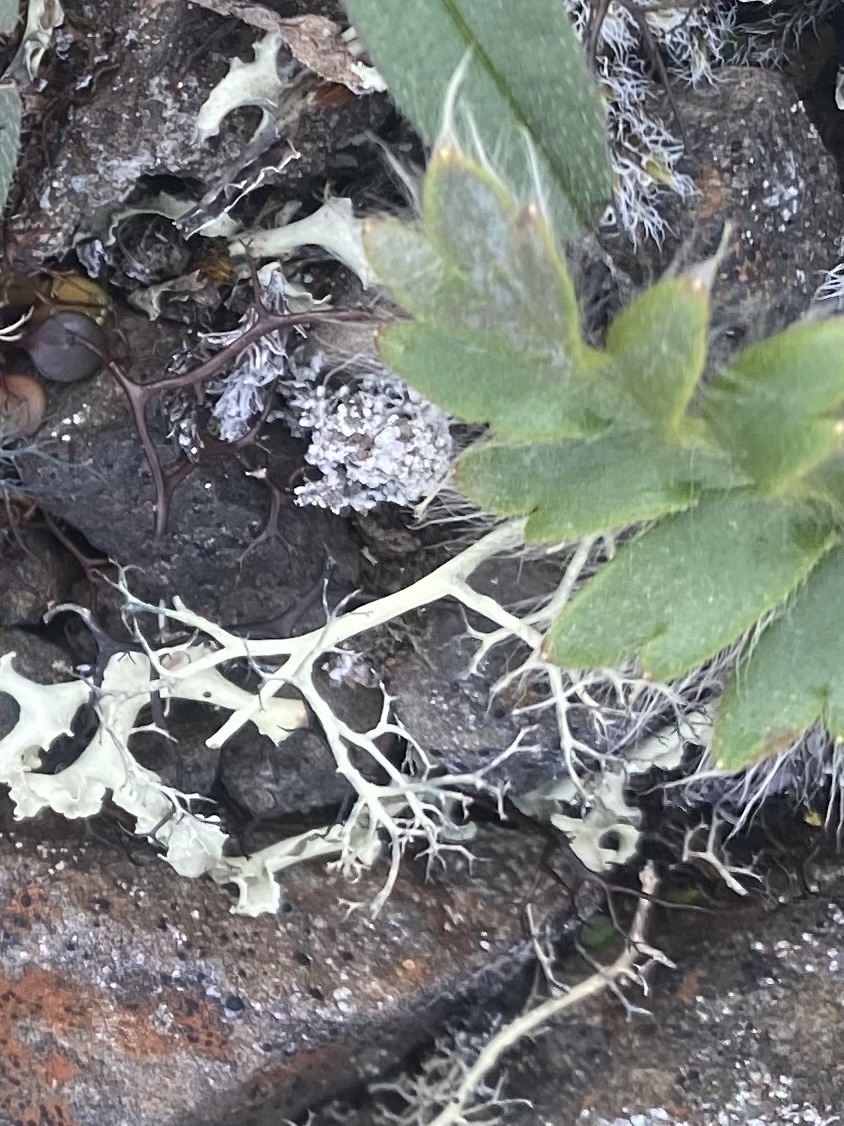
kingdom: Plantae
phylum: Tracheophyta
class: Magnoliopsida
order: Rosales
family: Rosaceae
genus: Geum
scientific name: Geum glaciale
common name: Glacier avens
